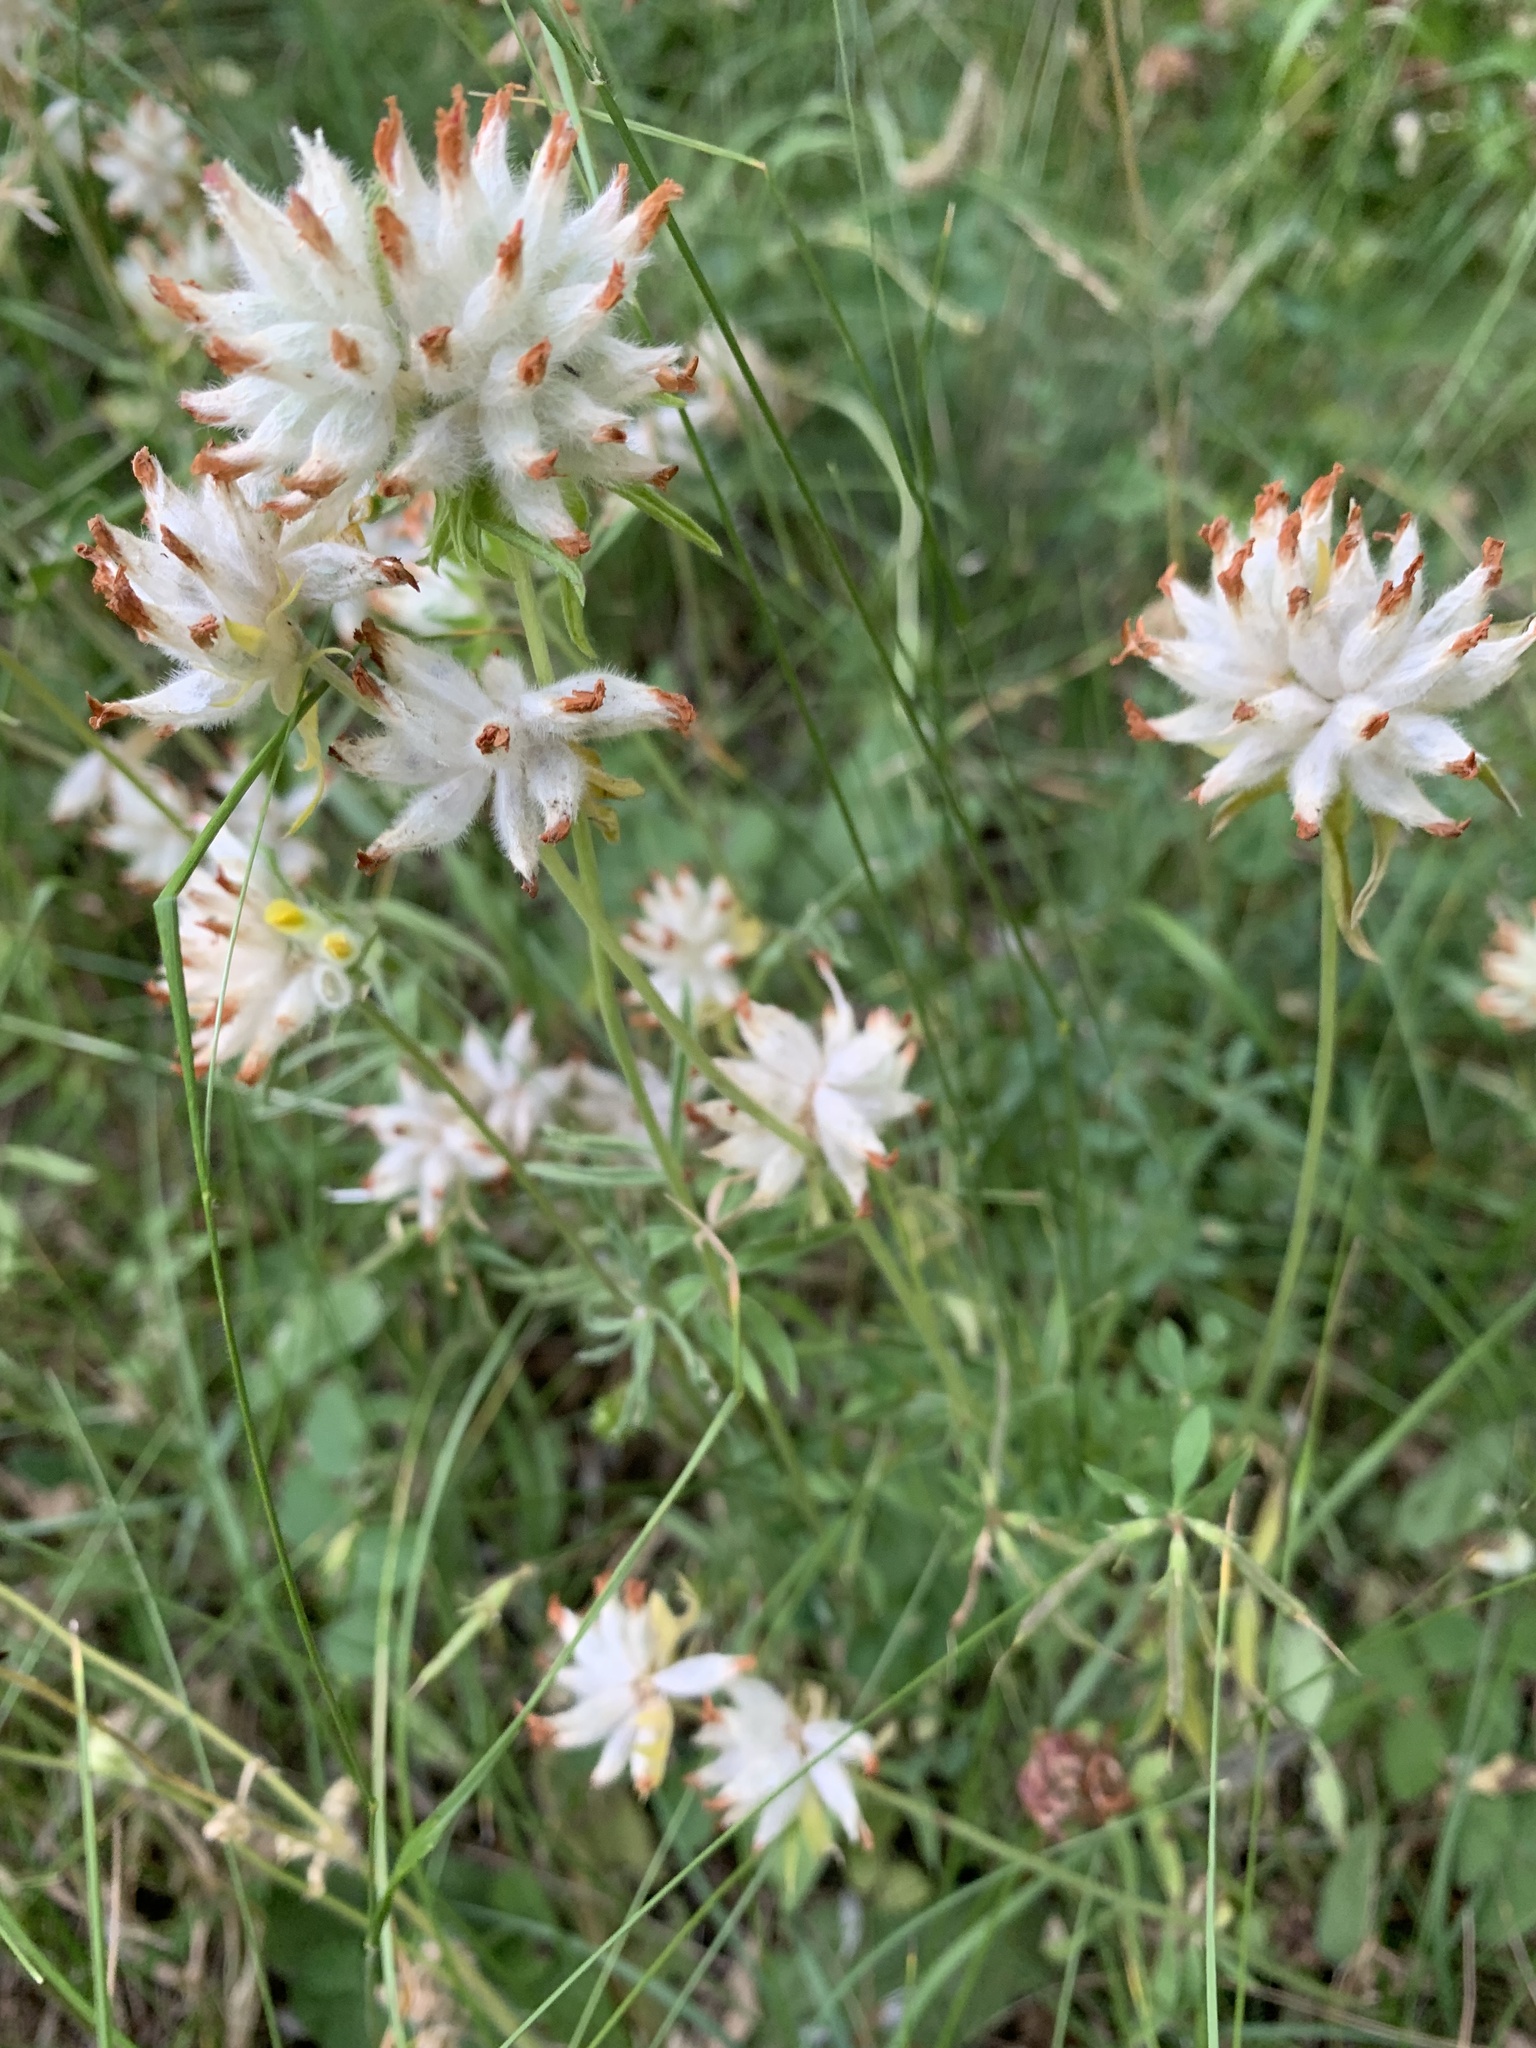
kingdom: Plantae
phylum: Tracheophyta
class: Magnoliopsida
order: Fabales
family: Fabaceae
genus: Anthyllis
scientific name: Anthyllis vulneraria
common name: Kidney vetch
